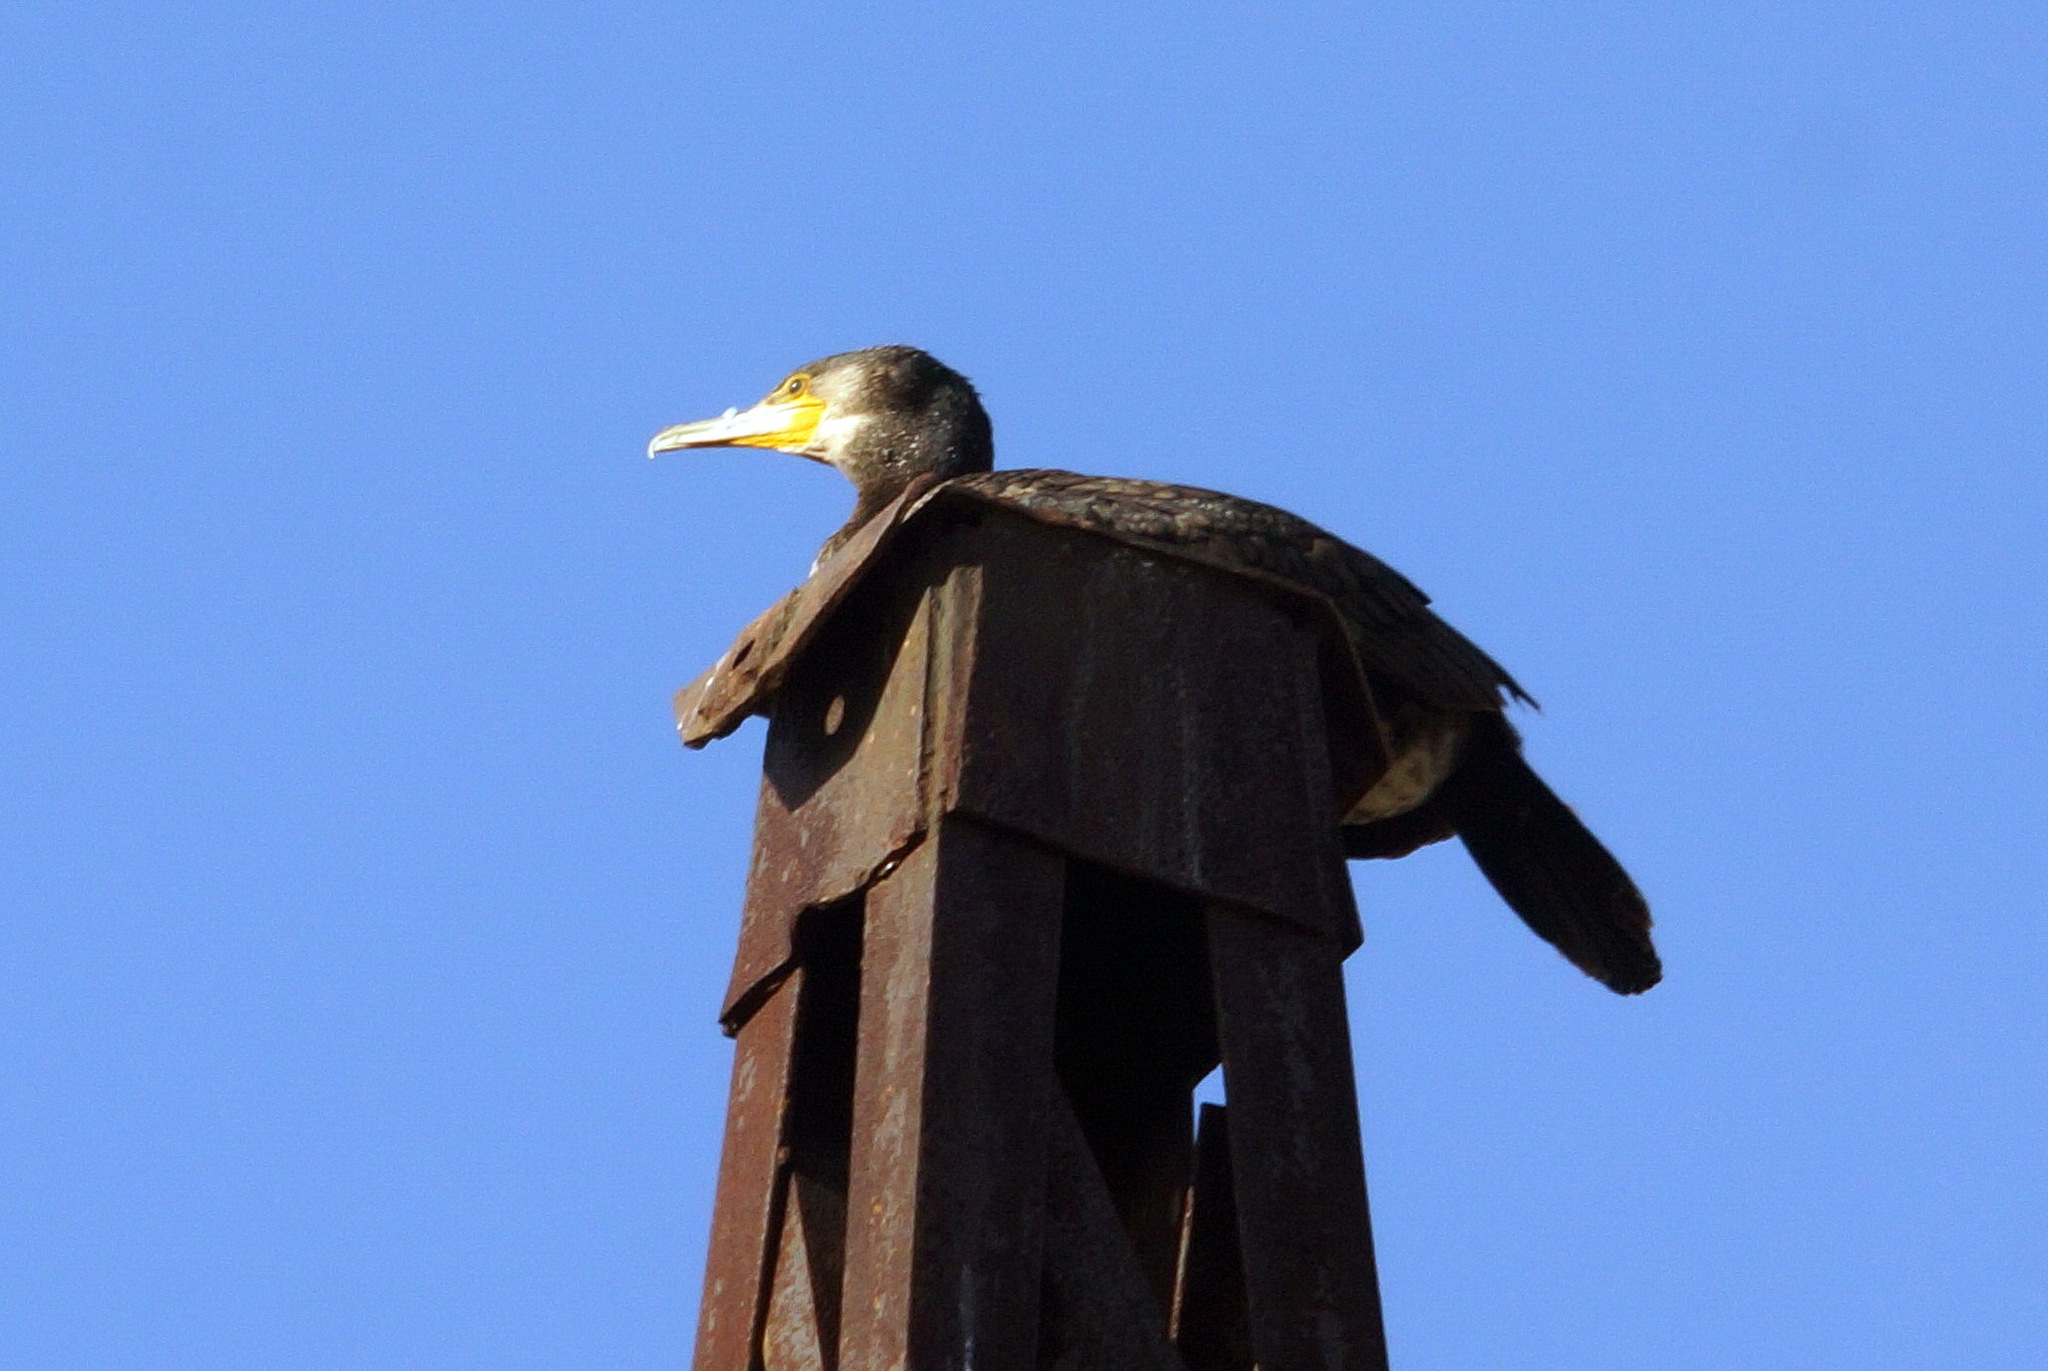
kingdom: Animalia
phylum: Chordata
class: Aves
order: Suliformes
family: Phalacrocoracidae
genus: Phalacrocorax
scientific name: Phalacrocorax carbo
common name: Great cormorant
